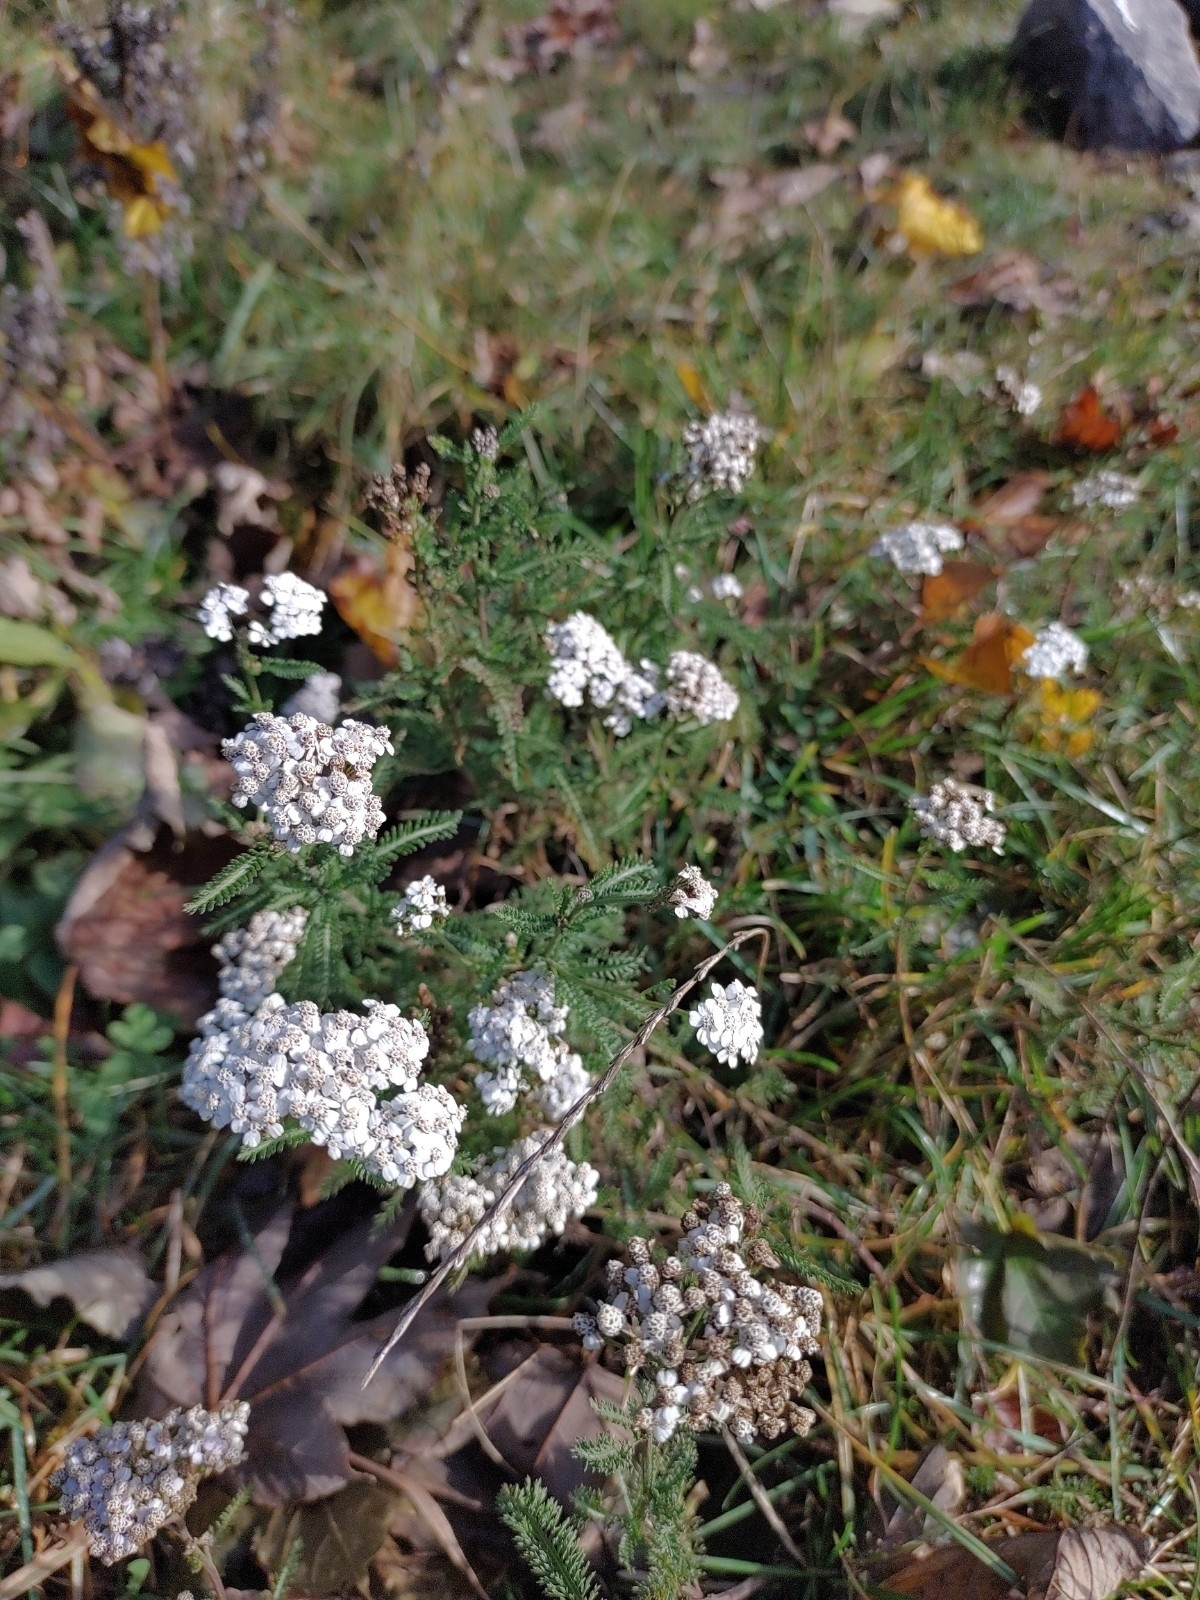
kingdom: Plantae
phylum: Tracheophyta
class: Magnoliopsida
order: Asterales
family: Asteraceae
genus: Achillea
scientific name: Achillea millefolium
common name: Yarrow
